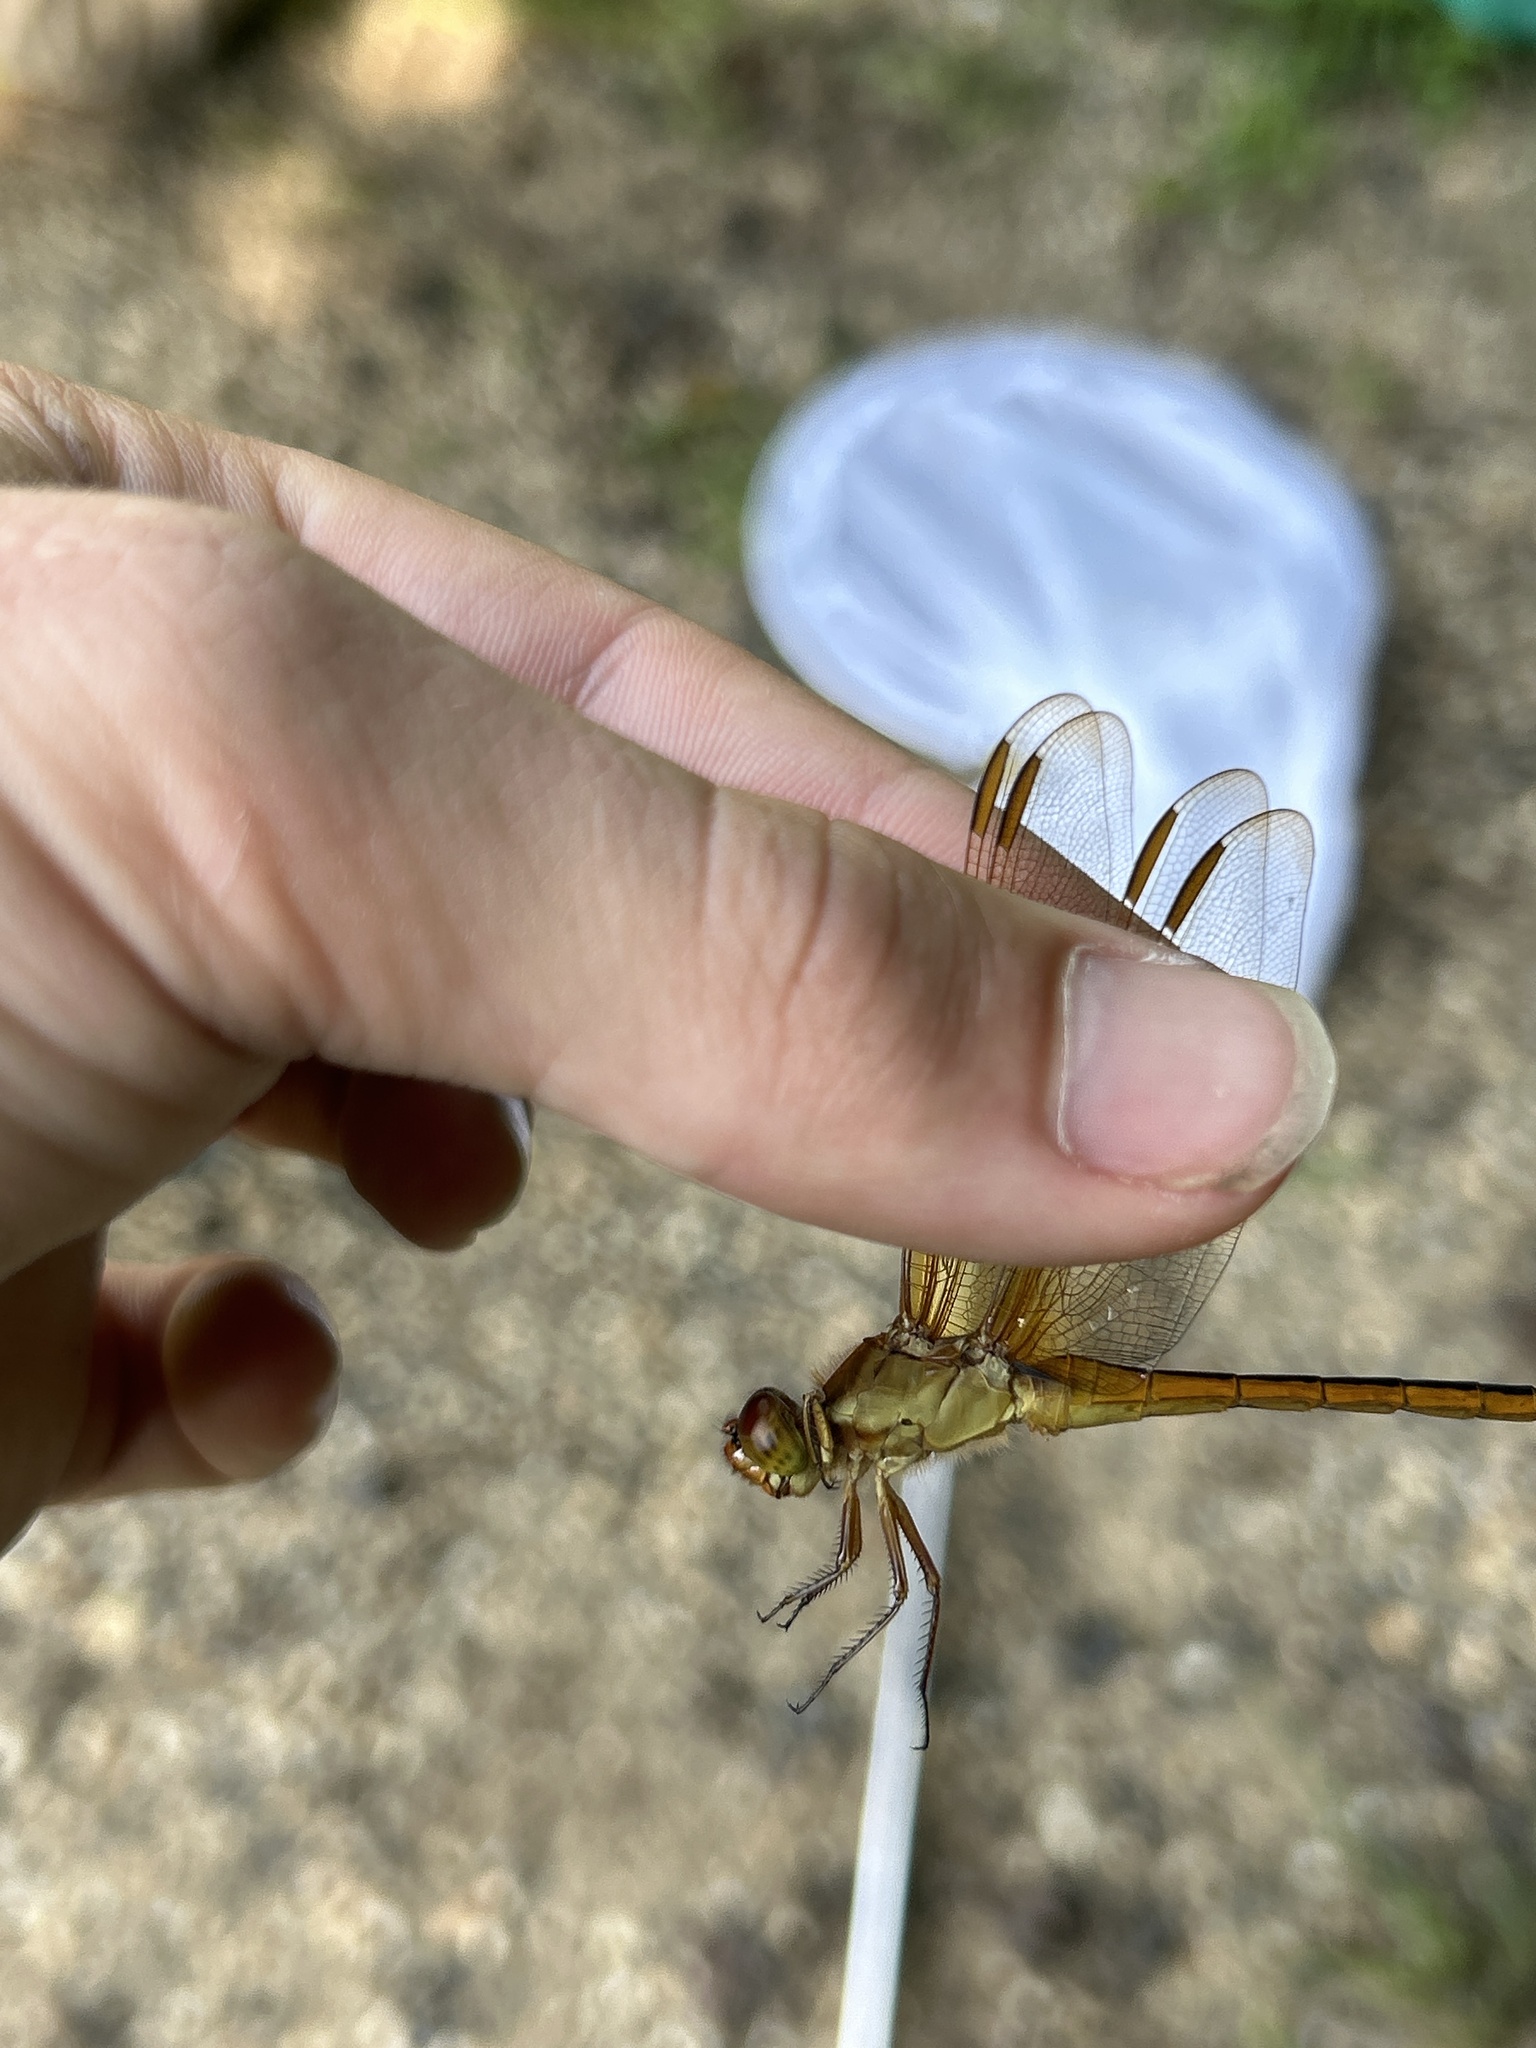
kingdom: Animalia
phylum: Arthropoda
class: Insecta
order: Odonata
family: Libellulidae
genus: Libellula
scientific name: Libellula needhami
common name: Needham's skimmer
